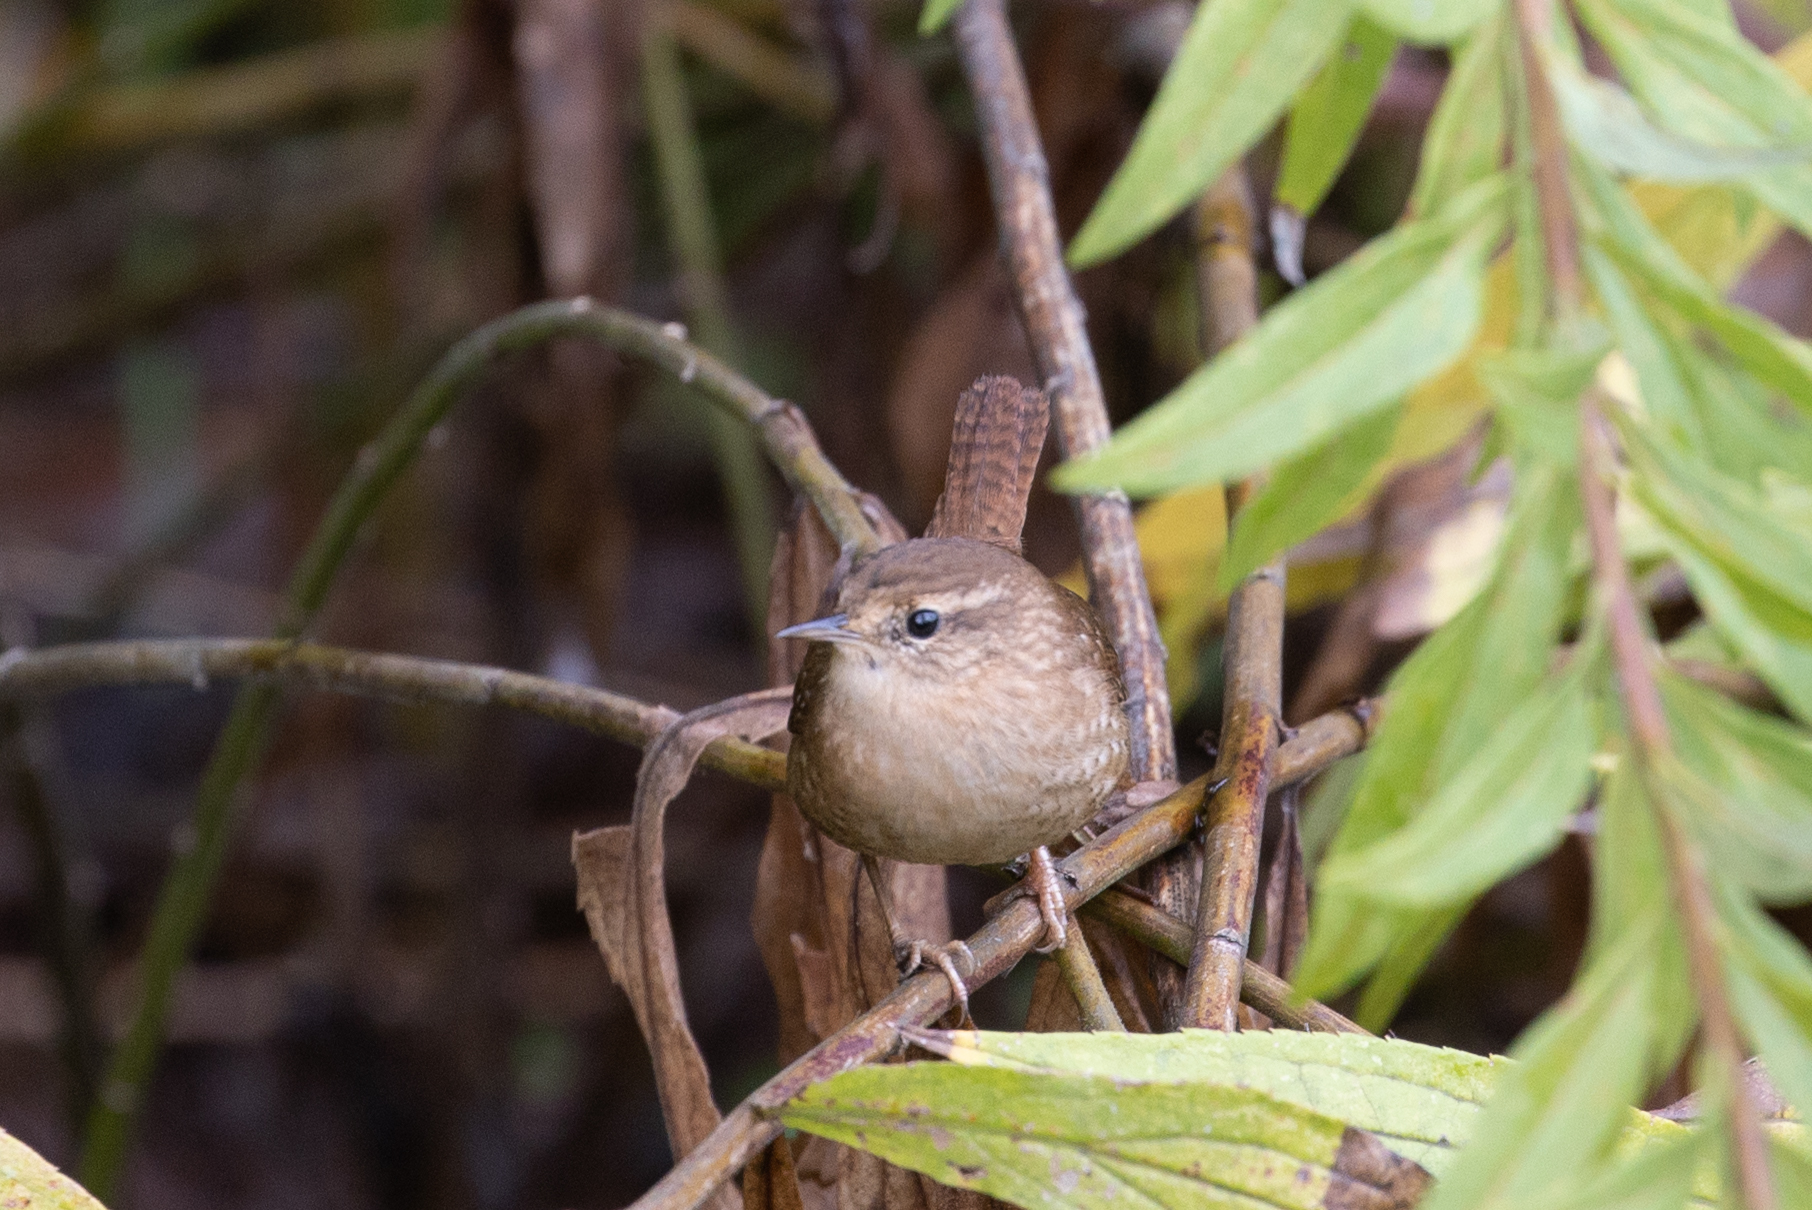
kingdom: Animalia
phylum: Chordata
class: Aves
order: Passeriformes
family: Troglodytidae
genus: Troglodytes
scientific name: Troglodytes hiemalis
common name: Winter wren
